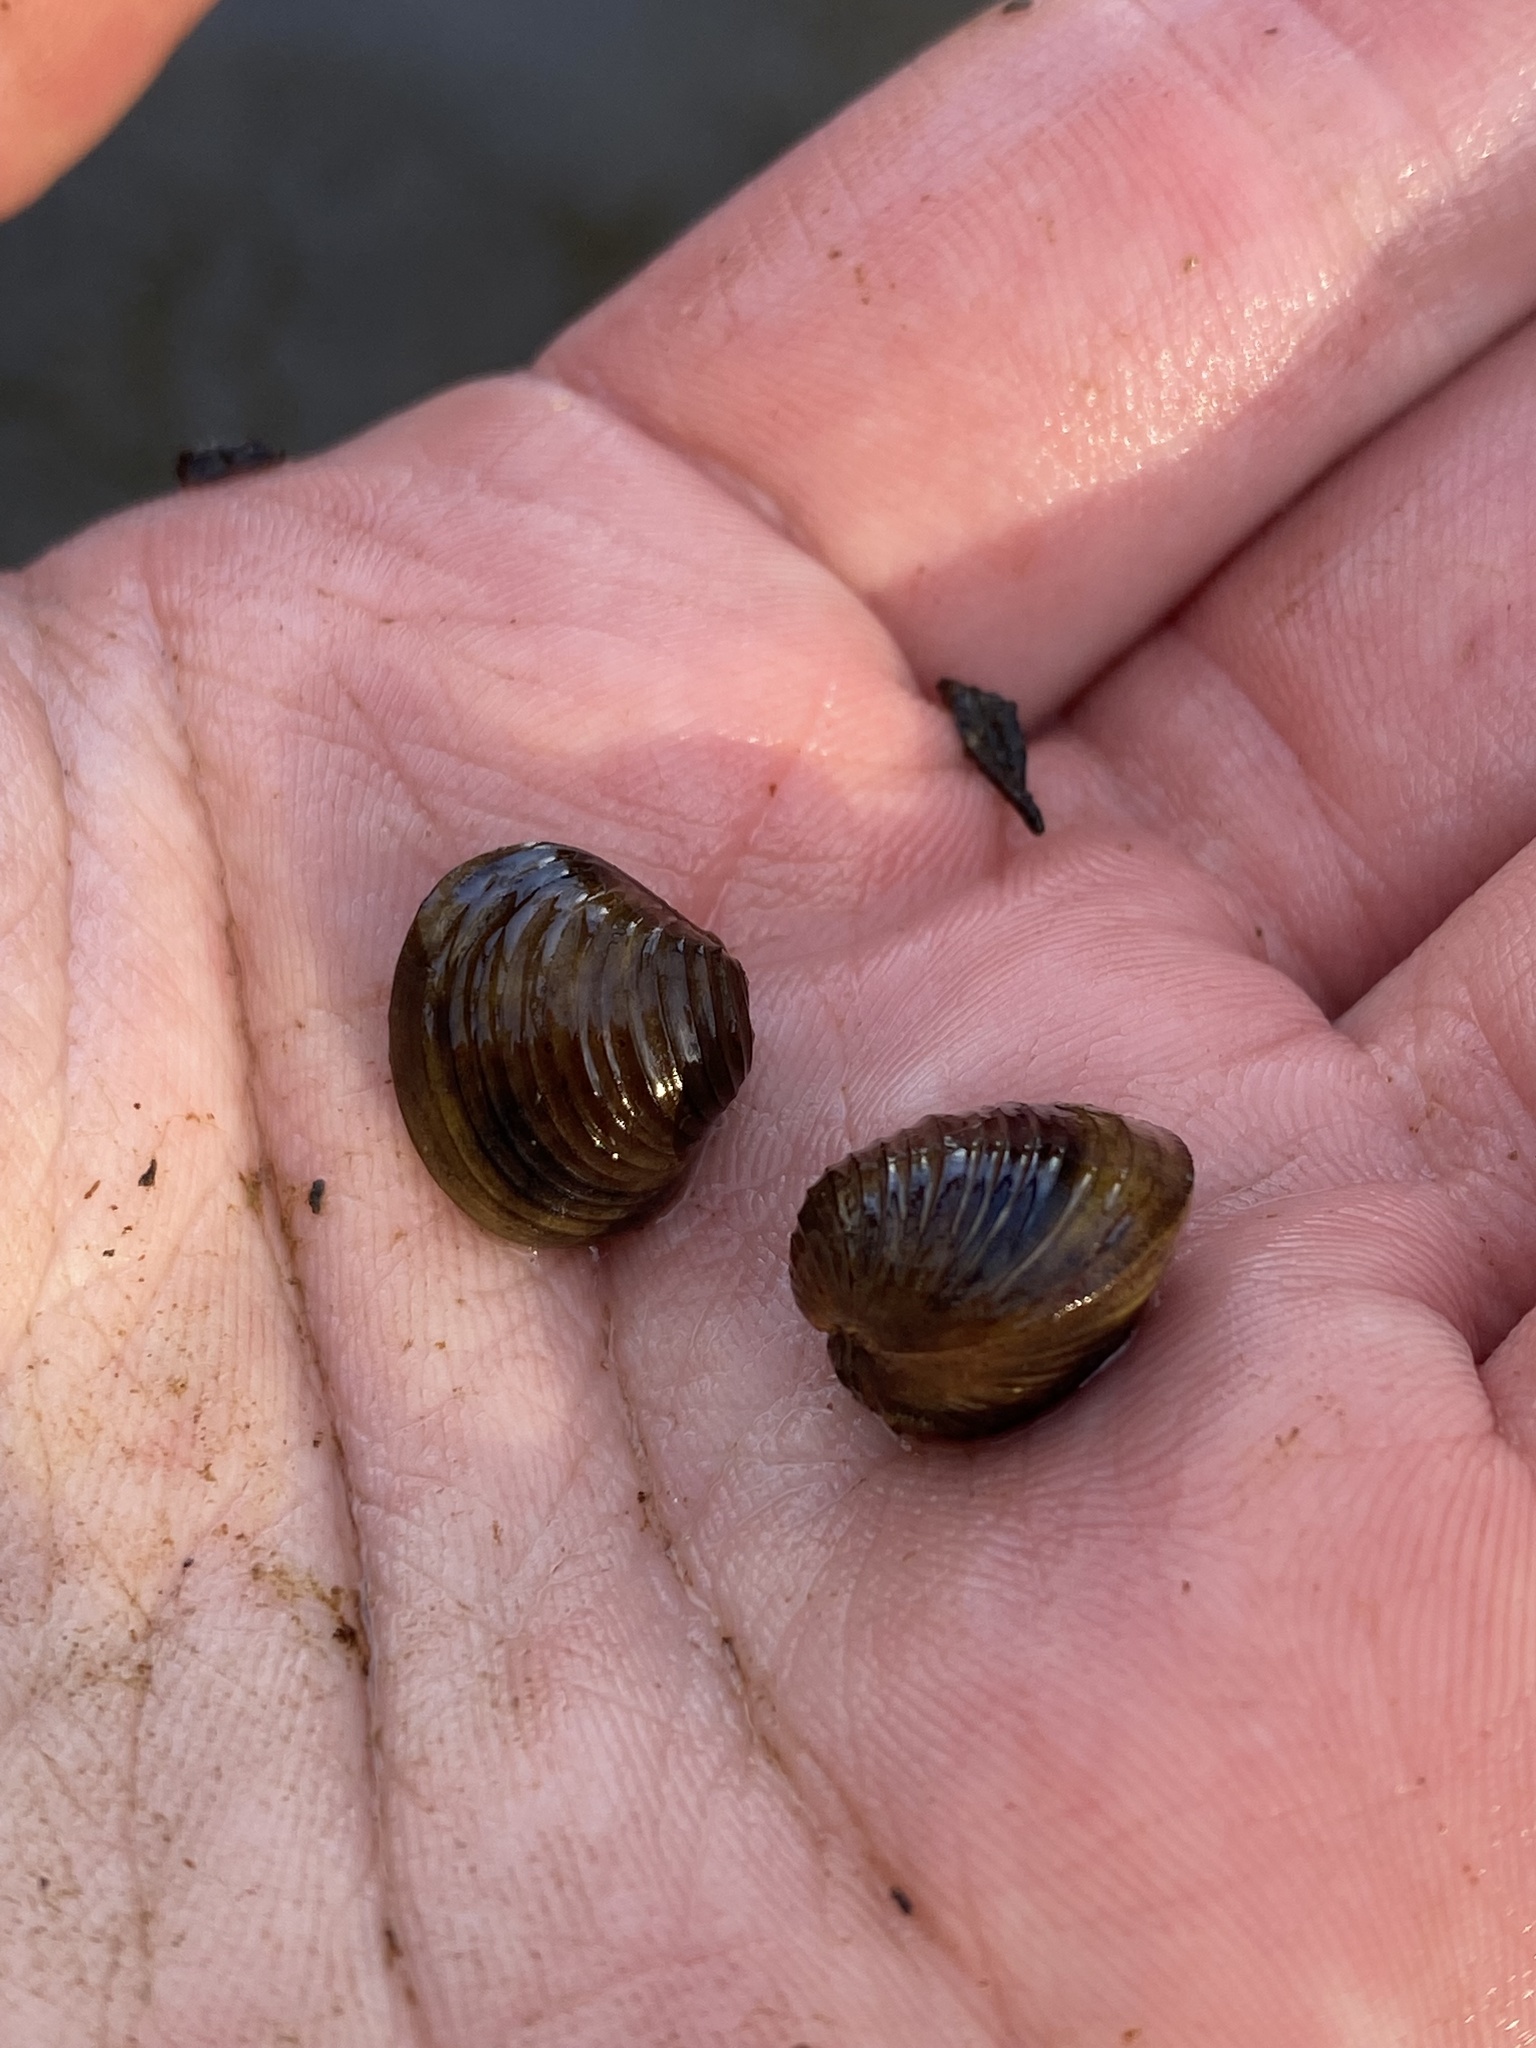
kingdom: Animalia
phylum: Mollusca
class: Bivalvia
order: Venerida
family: Cyrenidae
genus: Corbicula
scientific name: Corbicula fluminea
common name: Asian clam
